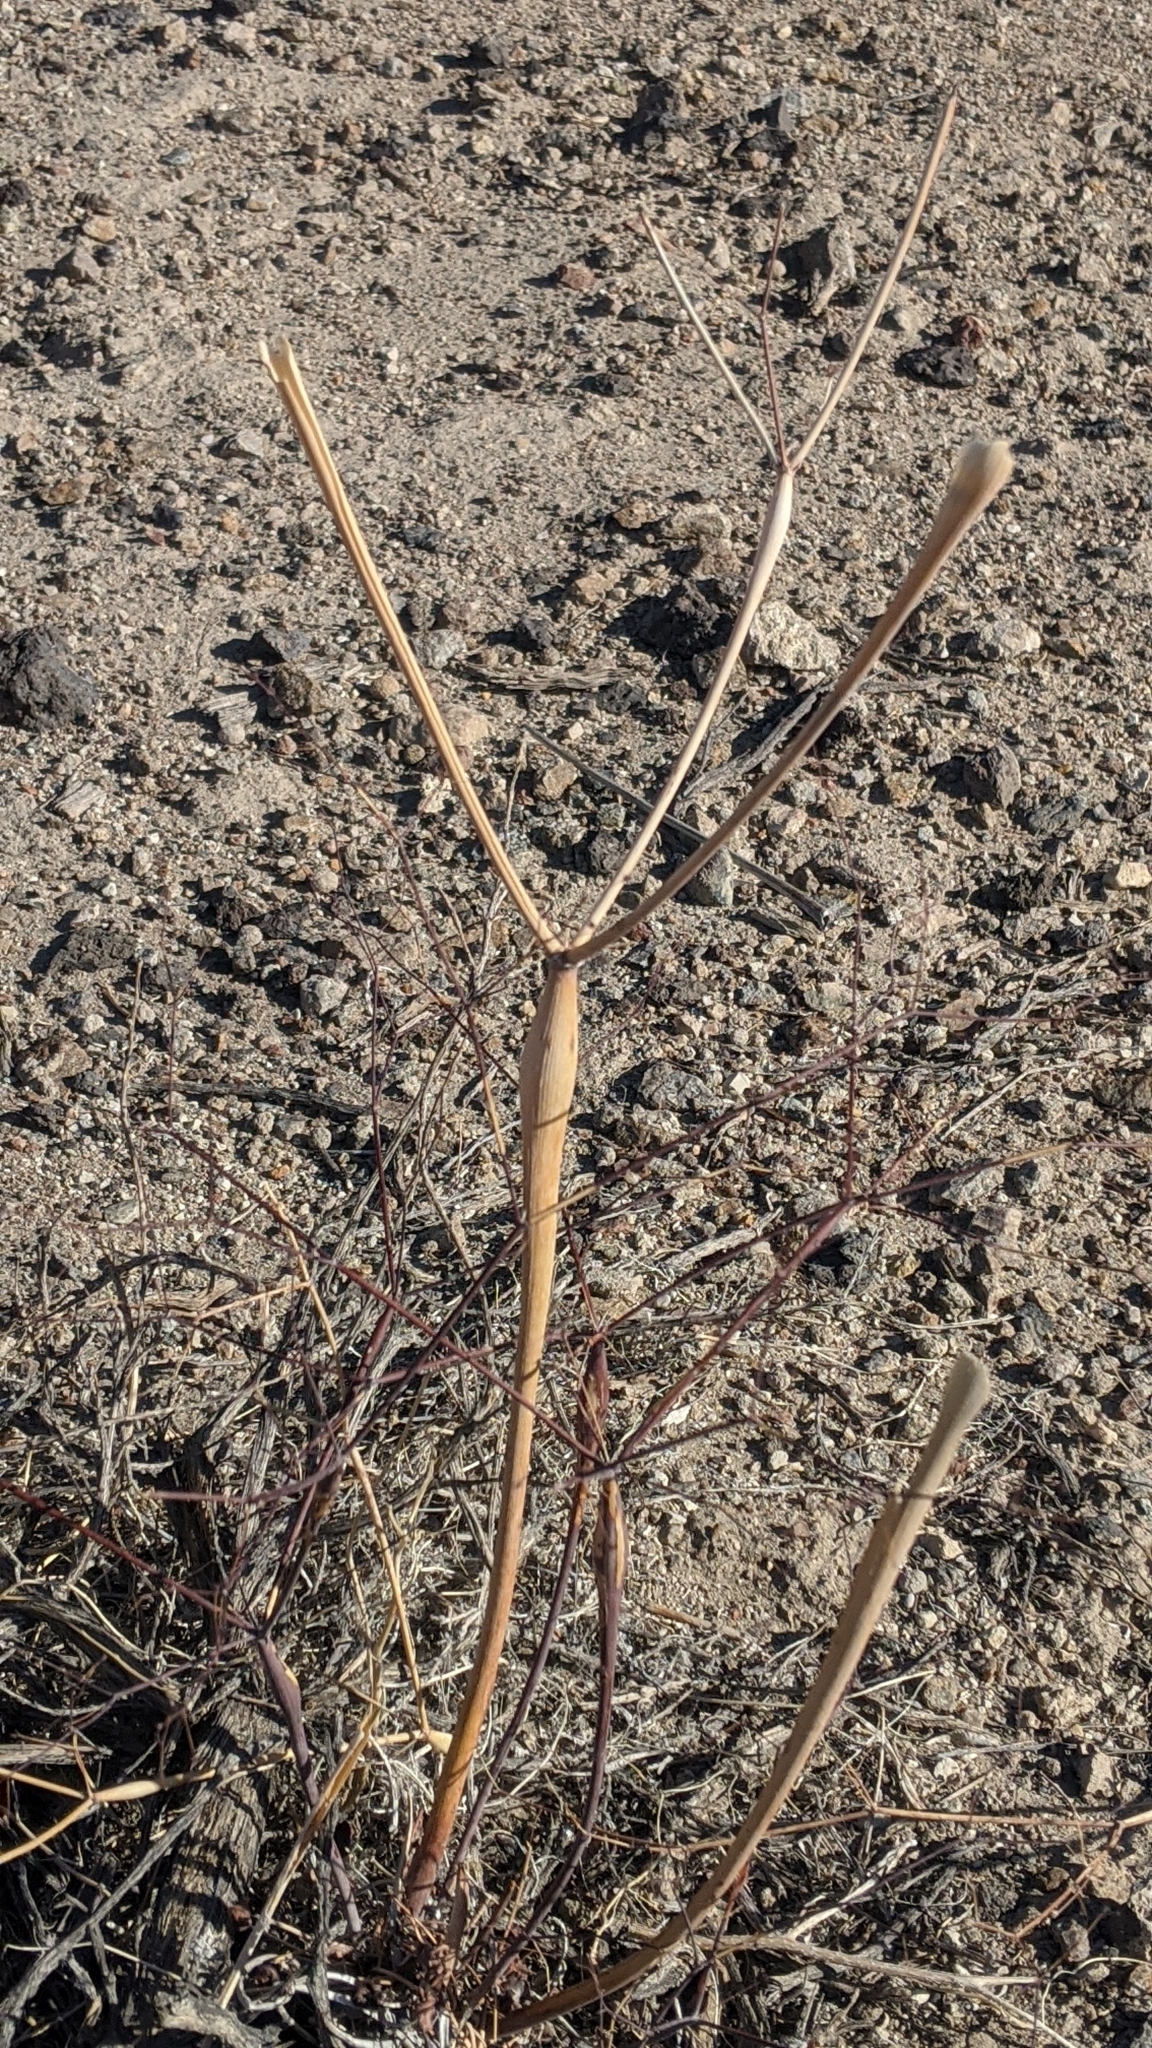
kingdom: Plantae
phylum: Tracheophyta
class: Magnoliopsida
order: Caryophyllales
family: Polygonaceae
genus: Eriogonum
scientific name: Eriogonum inflatum
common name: Desert trumpet
